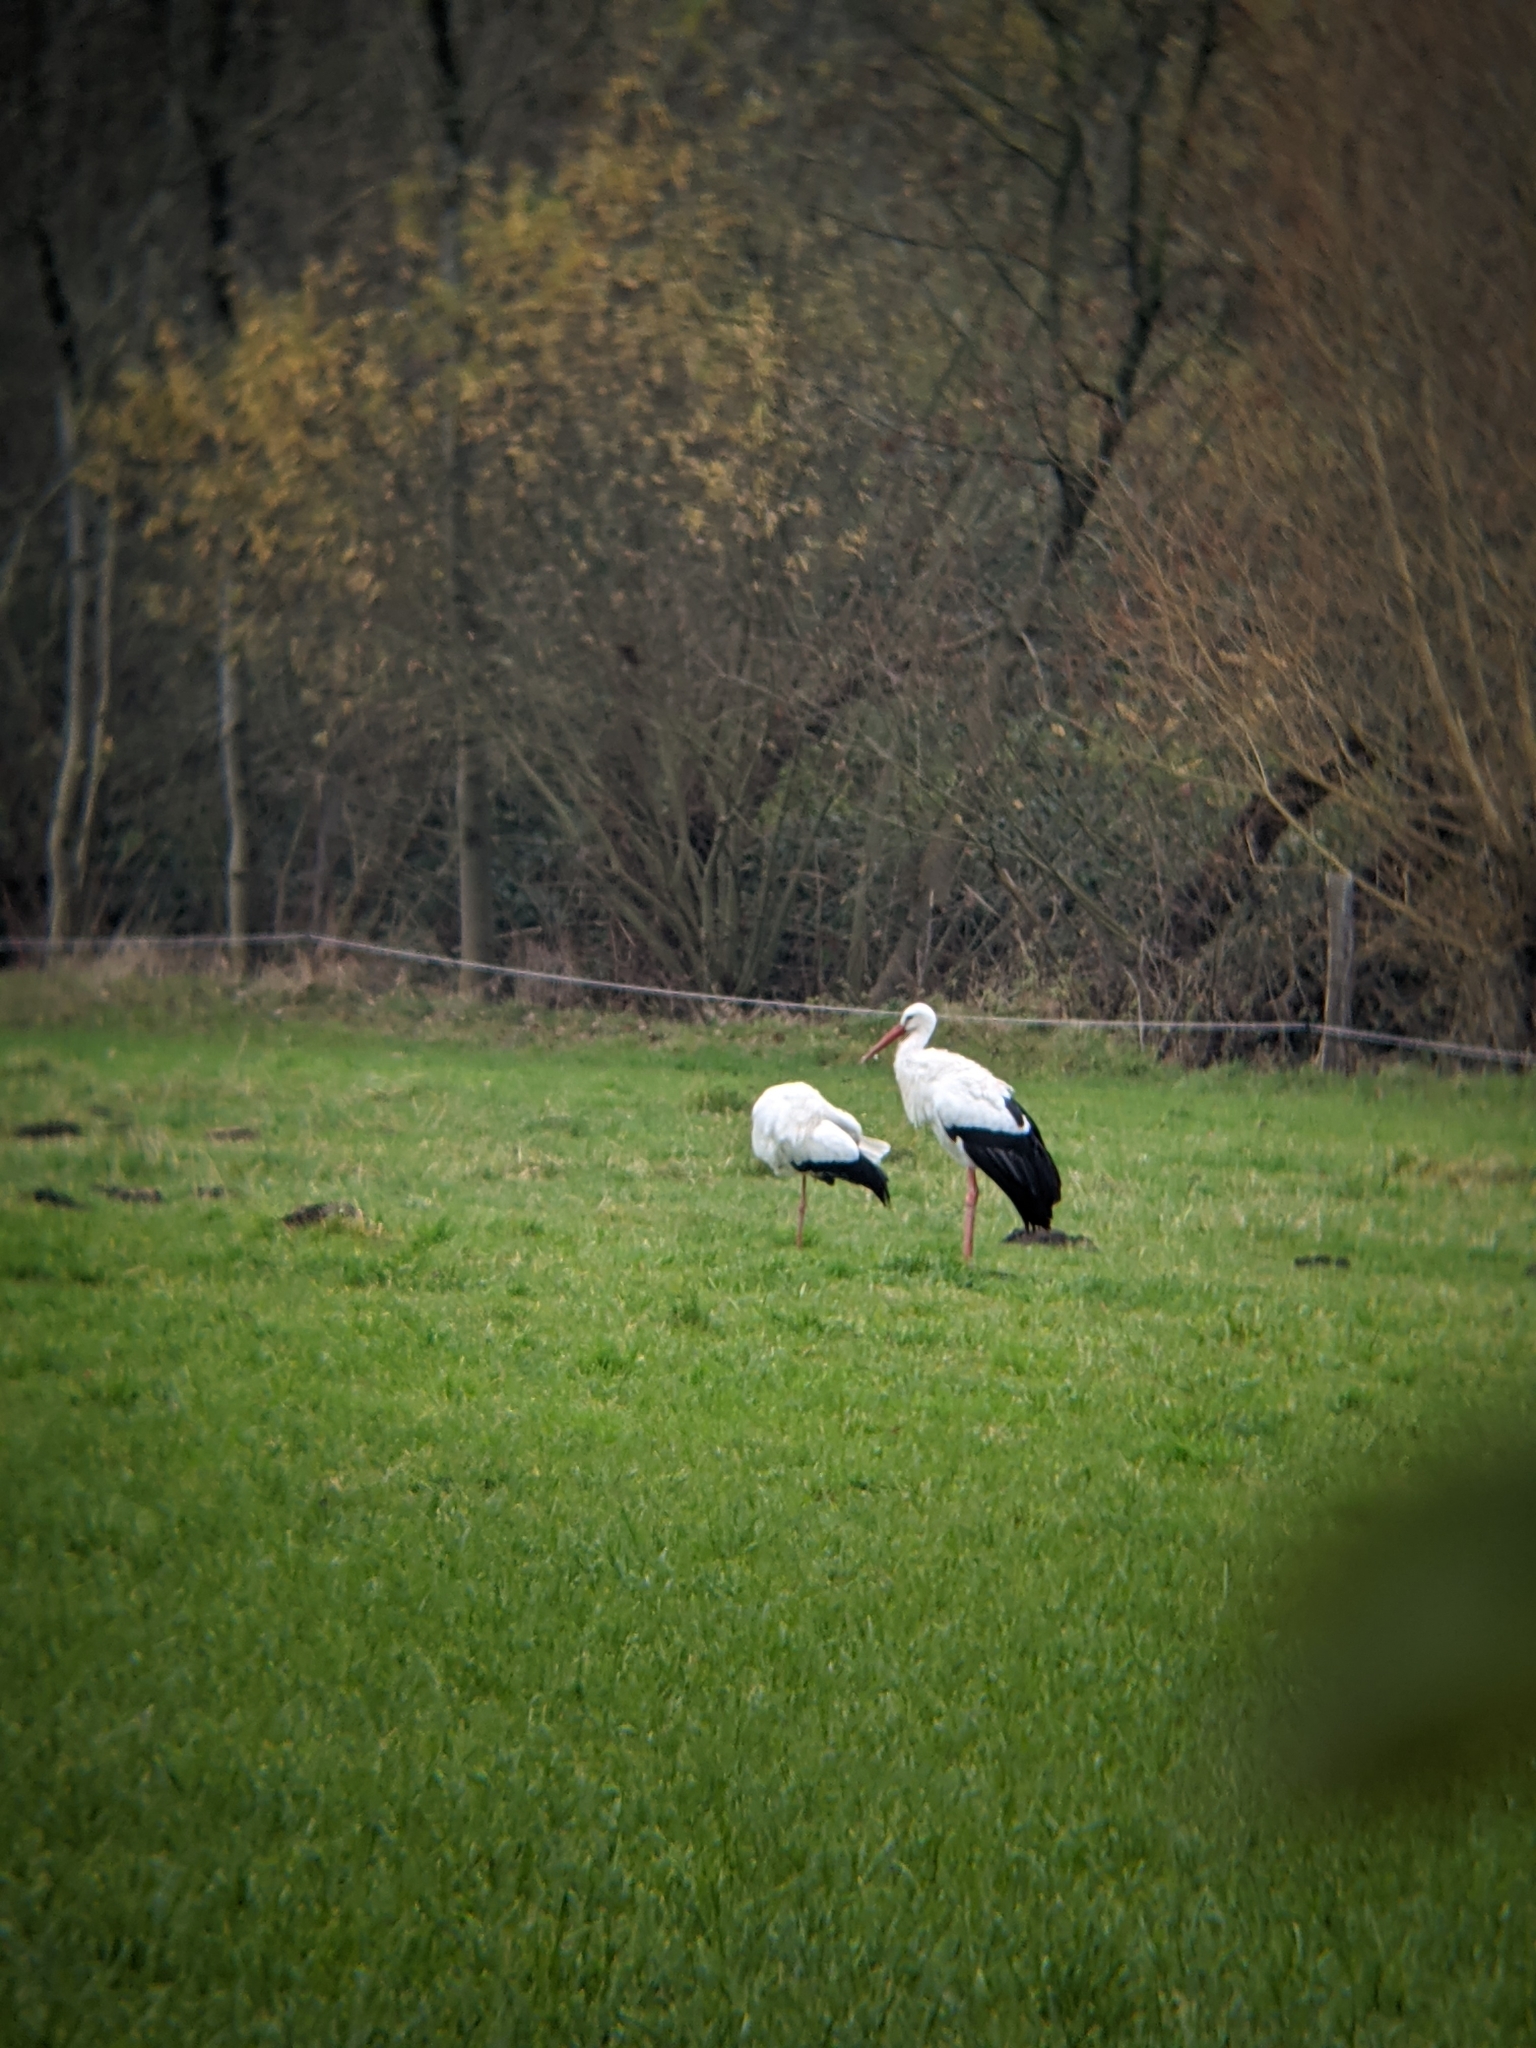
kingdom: Animalia
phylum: Chordata
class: Aves
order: Ciconiiformes
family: Ciconiidae
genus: Ciconia
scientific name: Ciconia ciconia
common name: White stork
